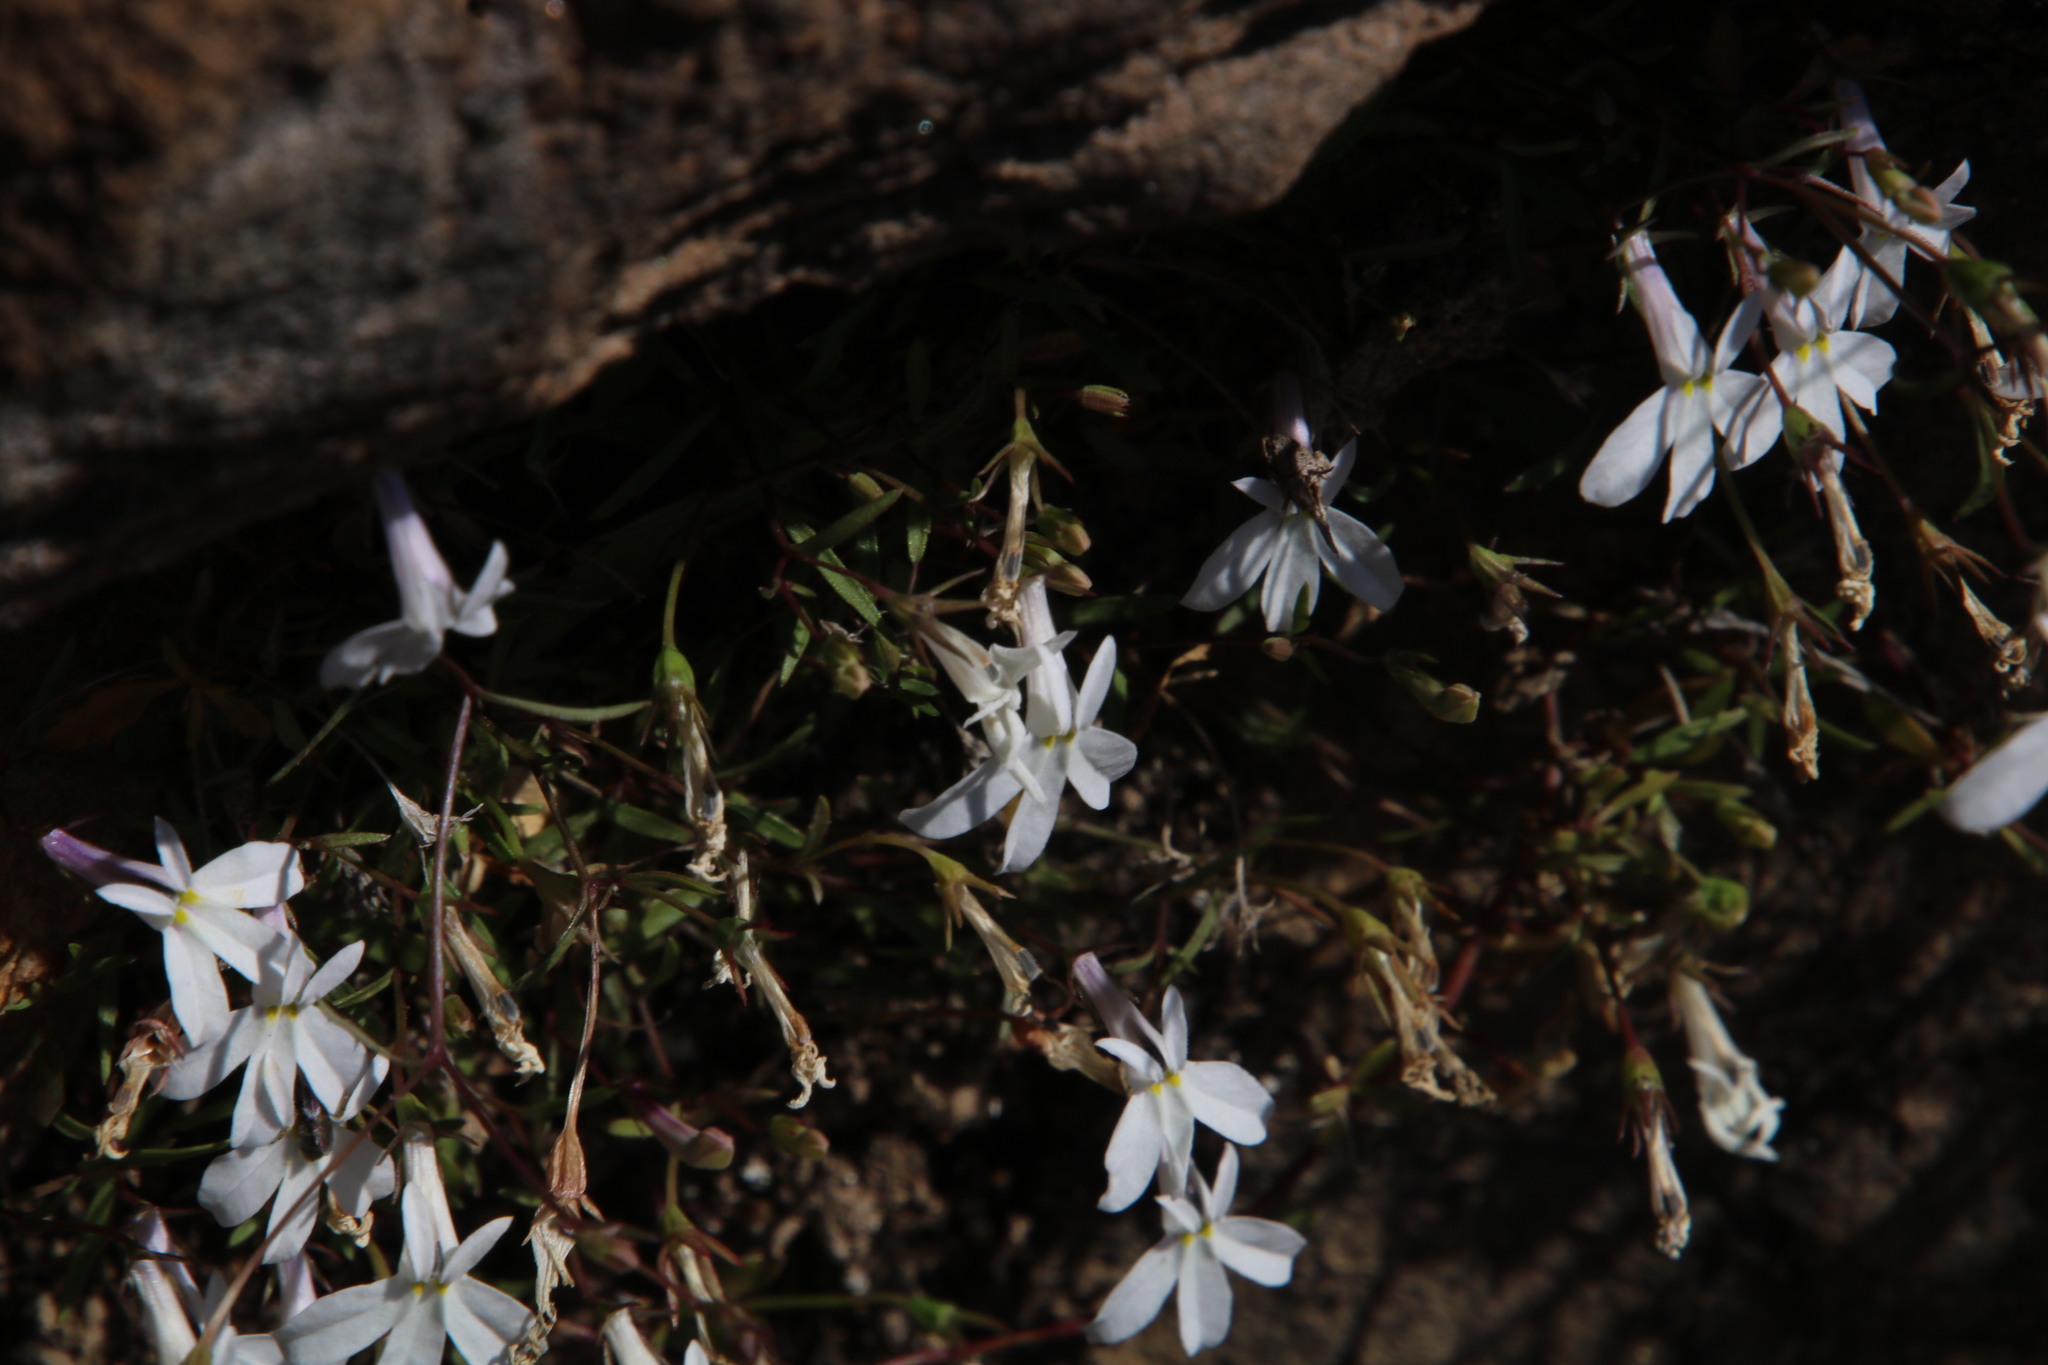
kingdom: Plantae
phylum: Tracheophyta
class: Magnoliopsida
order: Asterales
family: Campanulaceae
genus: Lobelia
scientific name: Lobelia pubescens
